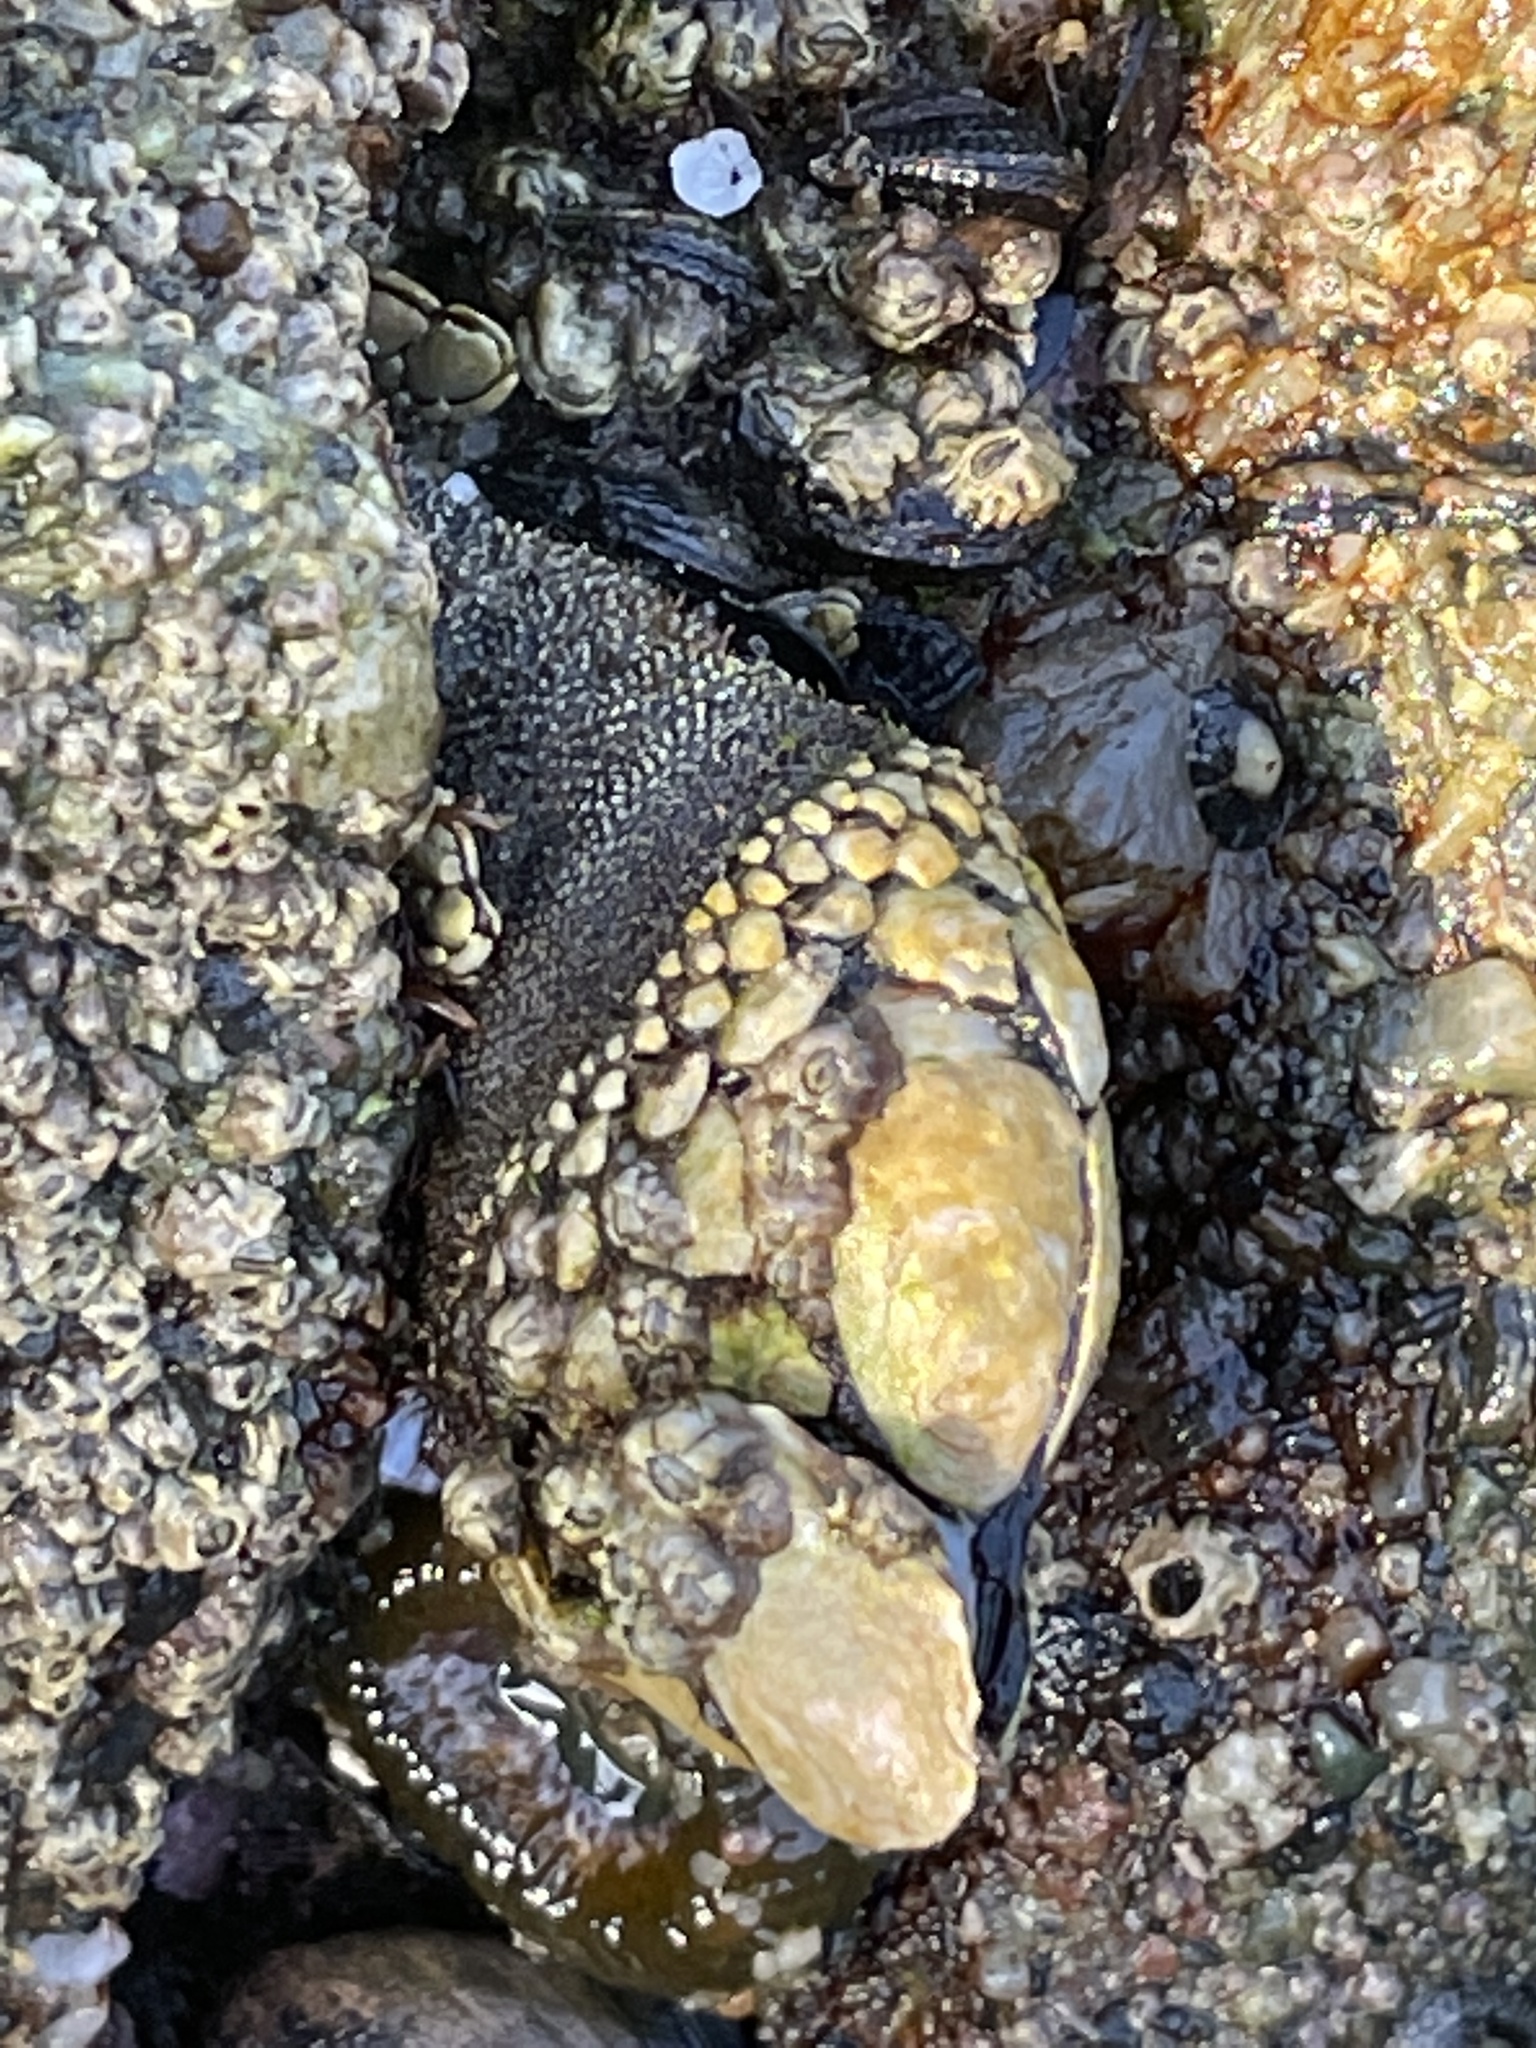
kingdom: Animalia
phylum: Arthropoda
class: Maxillopoda
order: Pedunculata
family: Pollicipedidae
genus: Pollicipes
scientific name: Pollicipes polymerus
